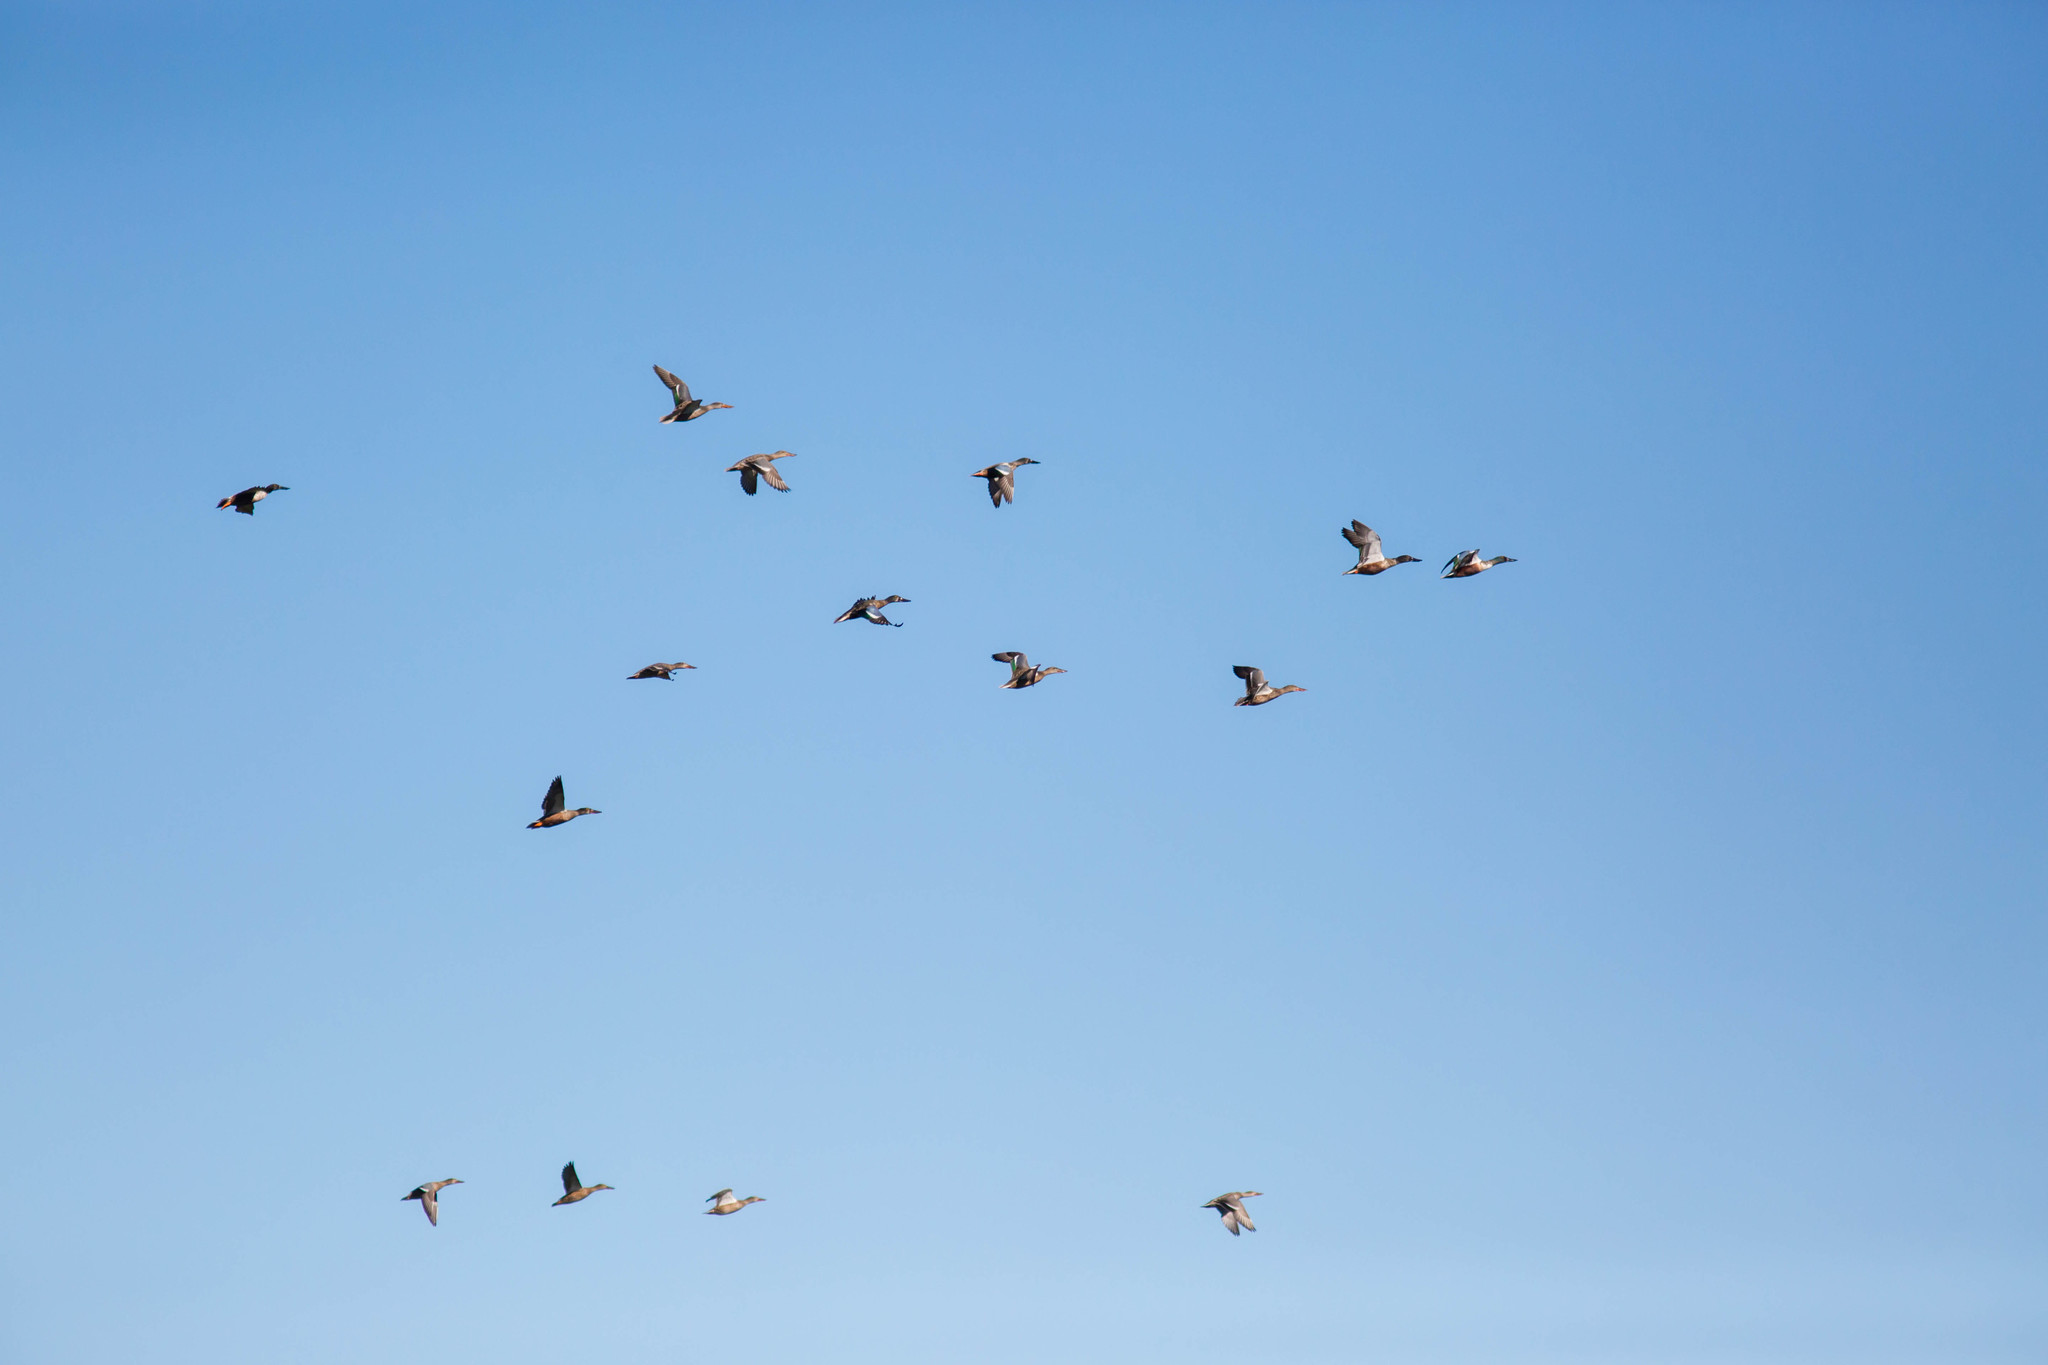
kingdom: Animalia
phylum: Chordata
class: Aves
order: Anseriformes
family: Anatidae
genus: Spatula
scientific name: Spatula clypeata
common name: Northern shoveler
